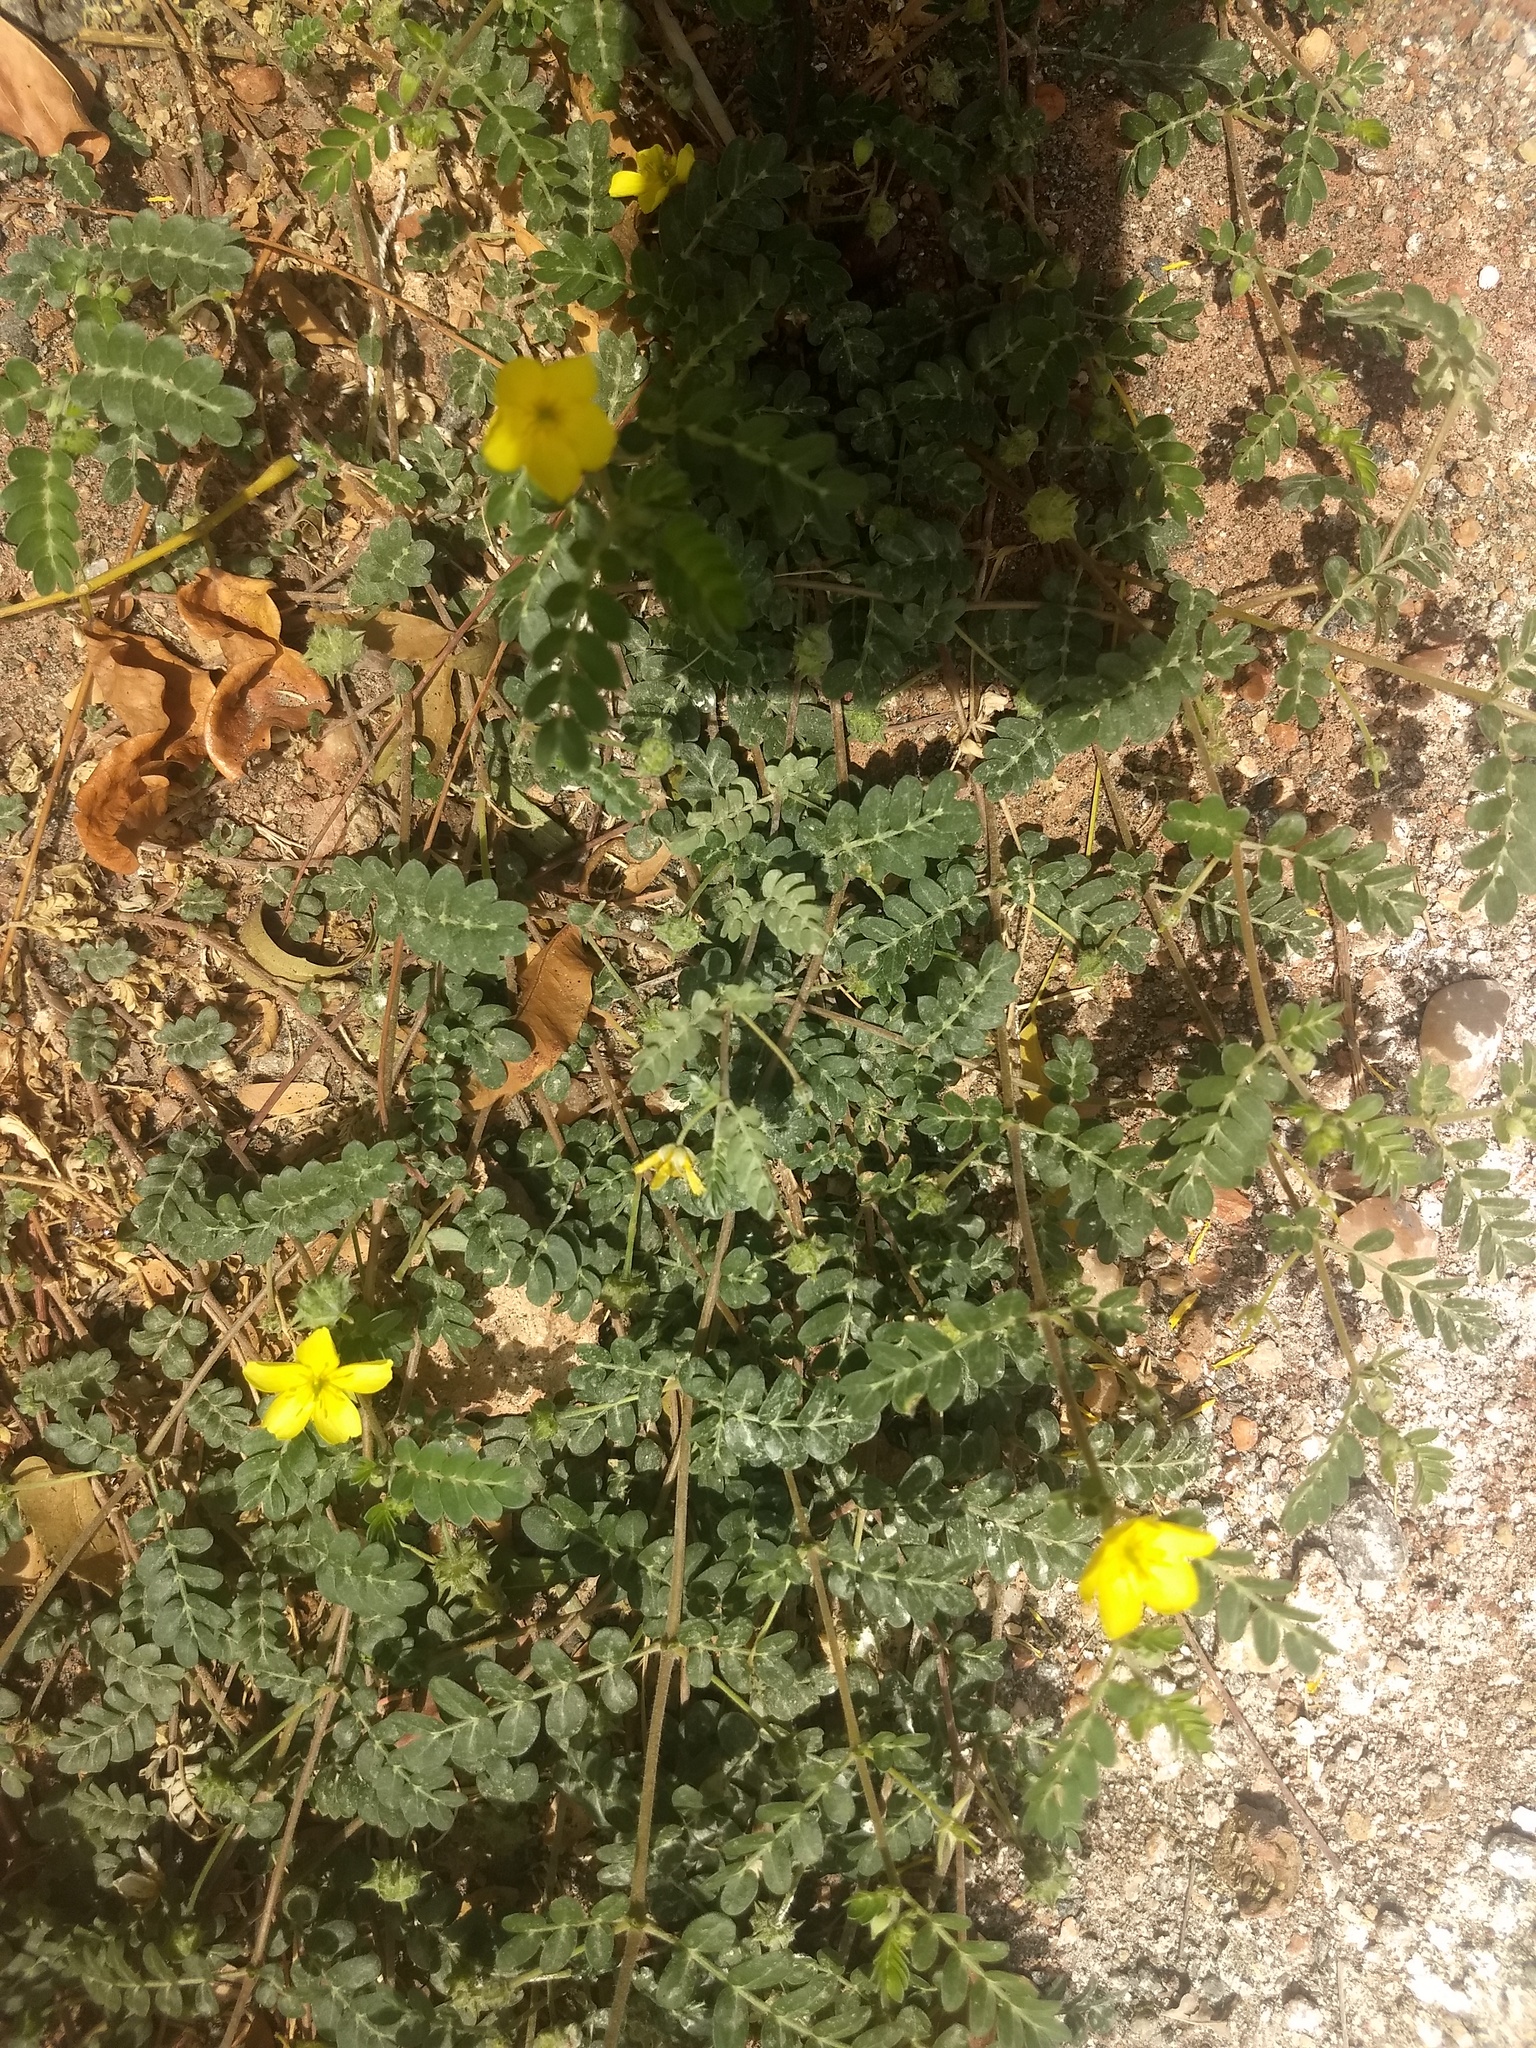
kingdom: Plantae
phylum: Tracheophyta
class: Magnoliopsida
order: Zygophyllales
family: Zygophyllaceae
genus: Tribulus
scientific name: Tribulus terrestris
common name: Puncturevine
